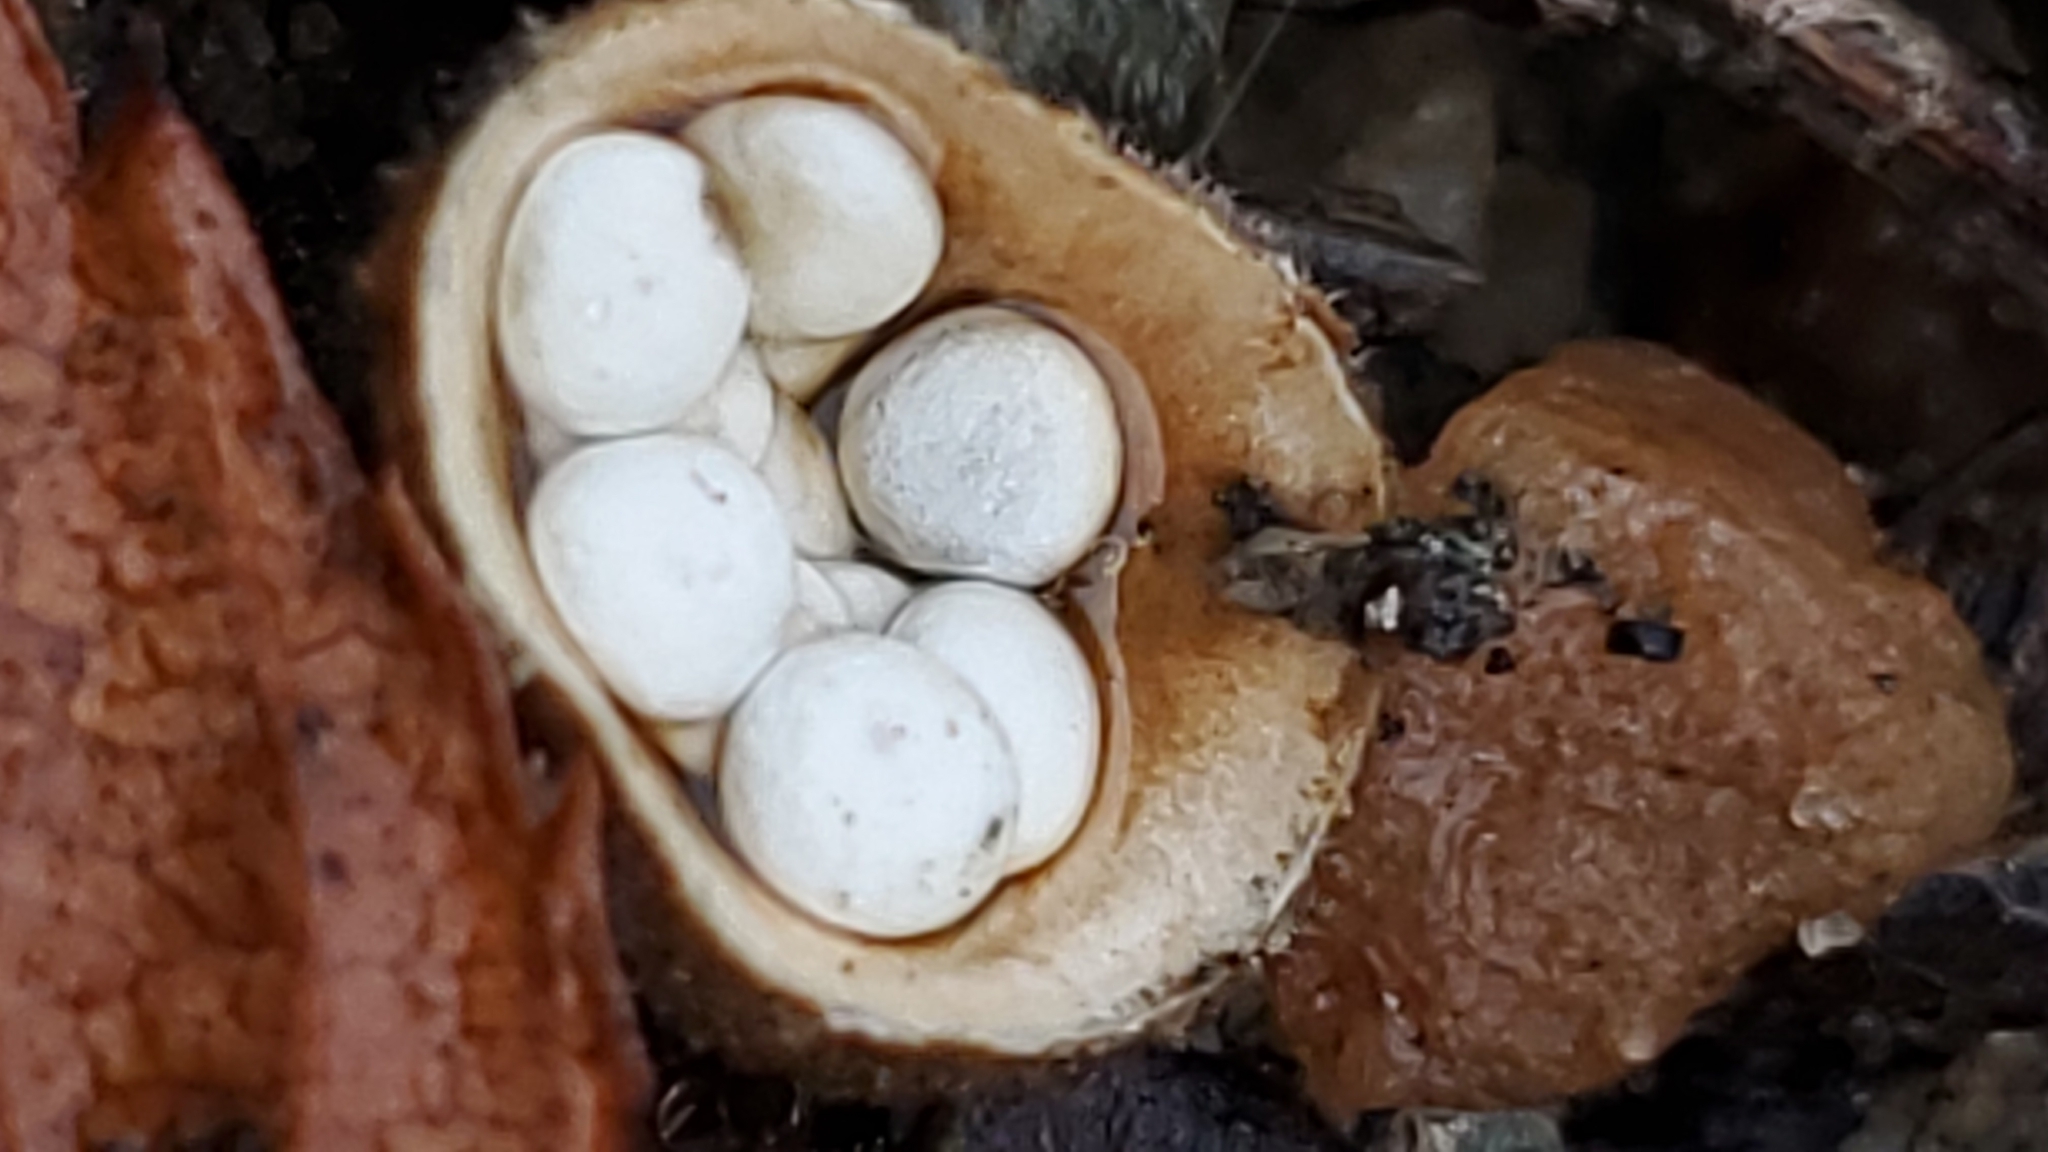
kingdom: Fungi
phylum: Basidiomycota
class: Agaricomycetes
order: Agaricales
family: Nidulariaceae
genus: Crucibulum
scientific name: Crucibulum laeve
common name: Common bird's nest
